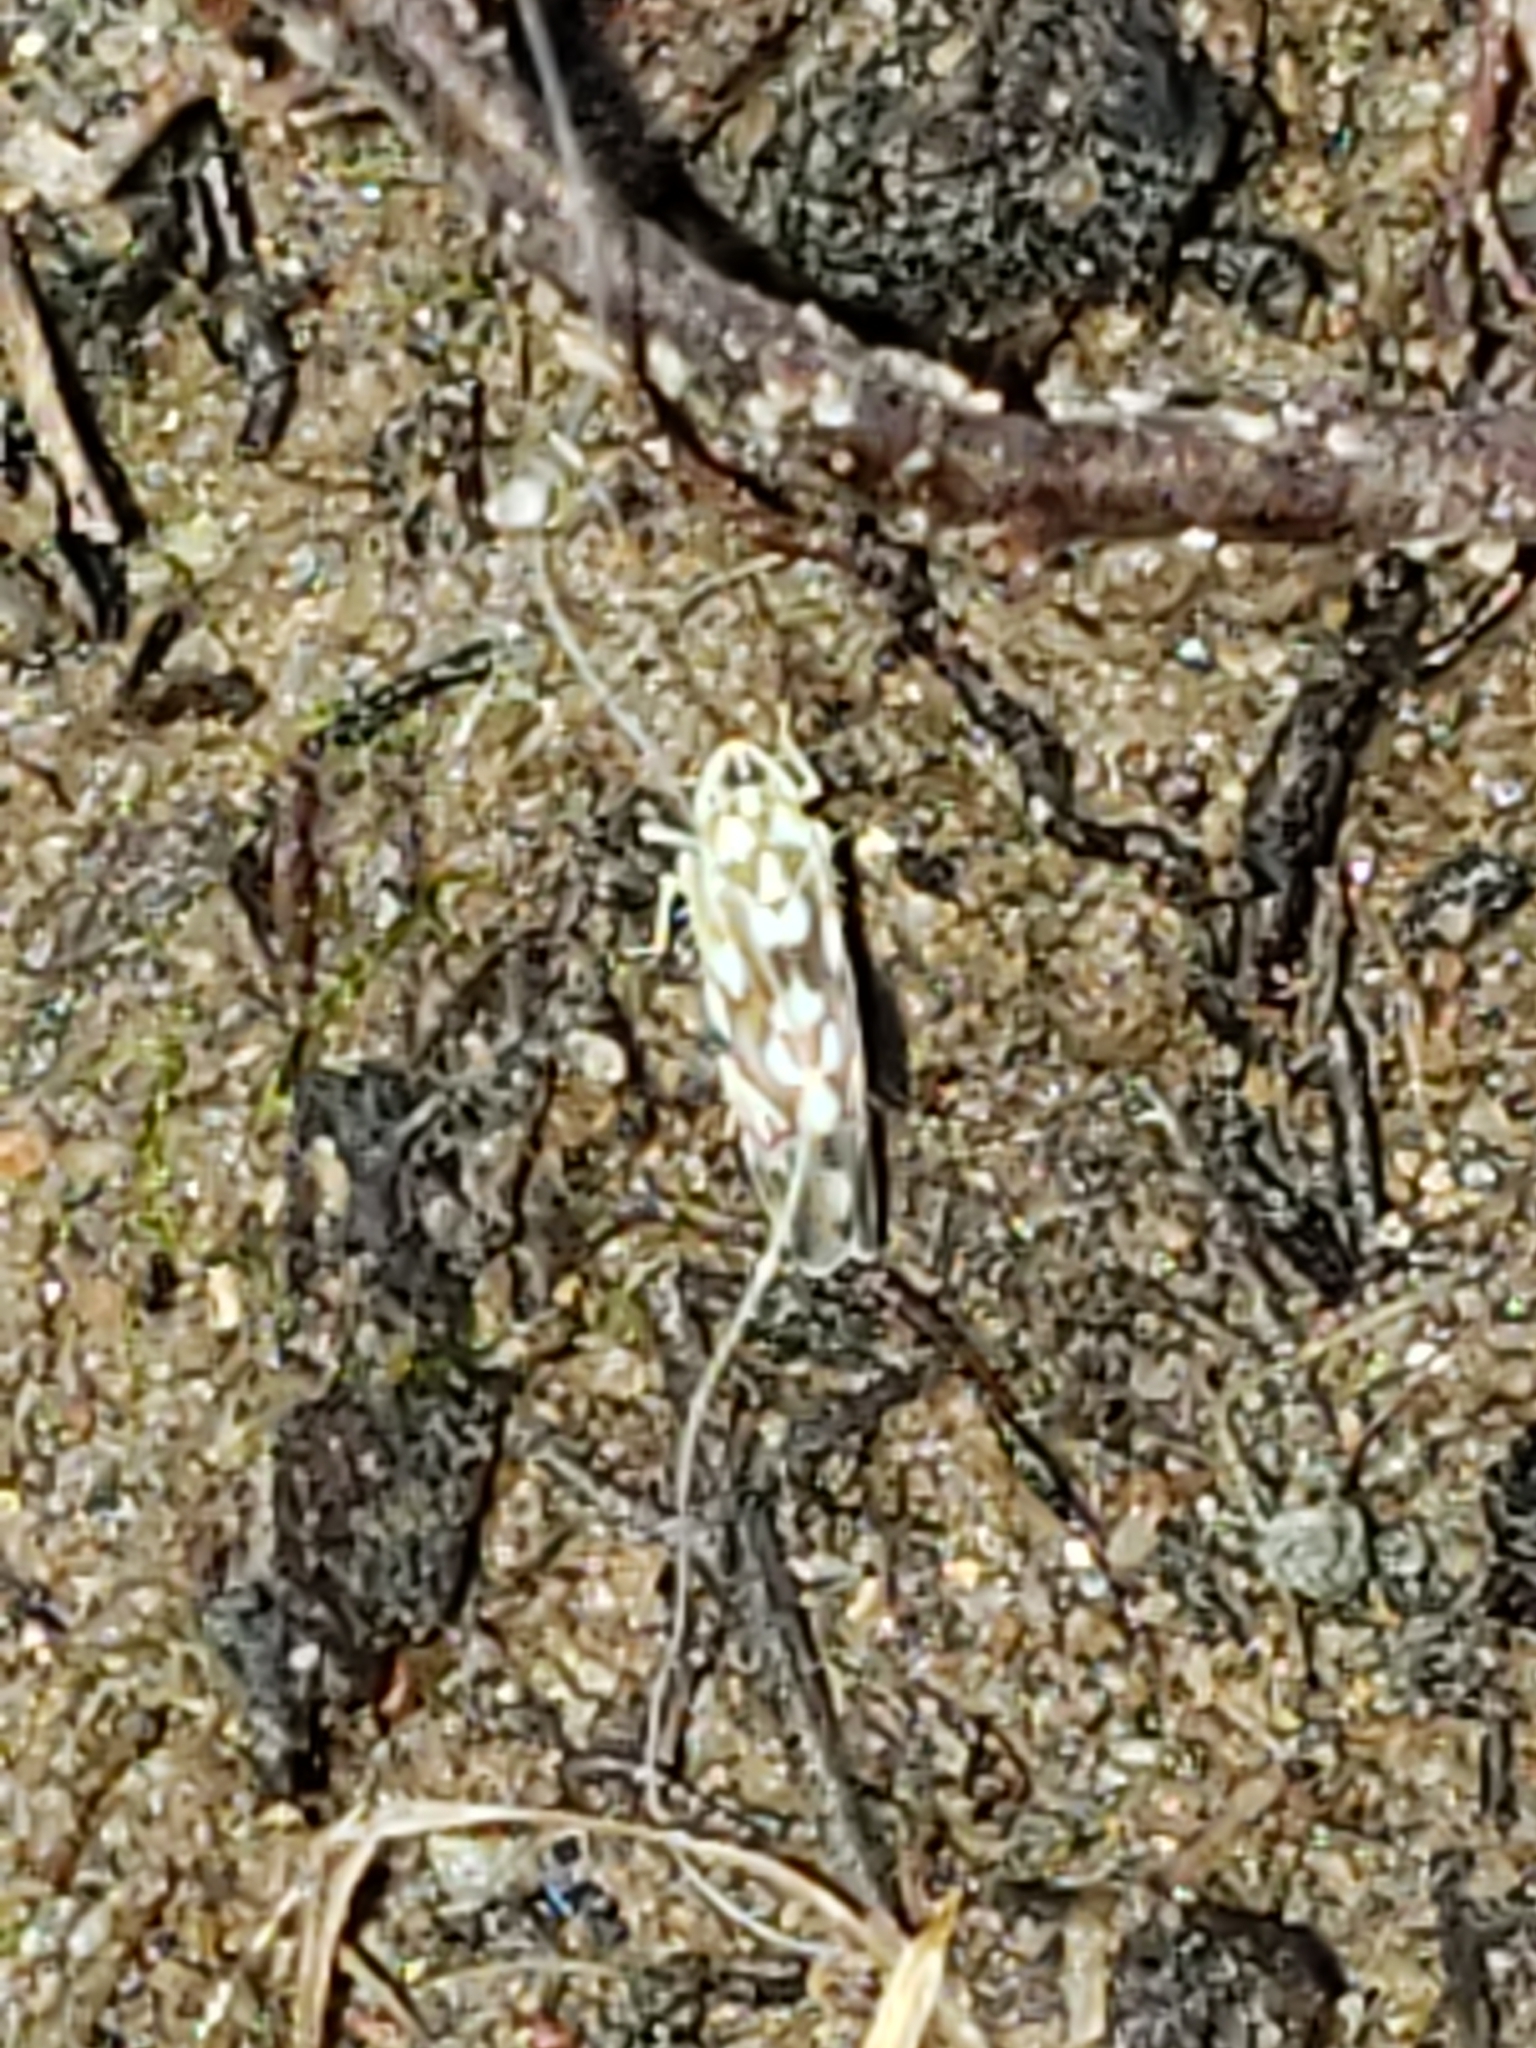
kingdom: Animalia
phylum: Arthropoda
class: Insecta
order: Hemiptera
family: Cicadellidae
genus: Erythroneura
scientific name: Erythroneura pontifex
